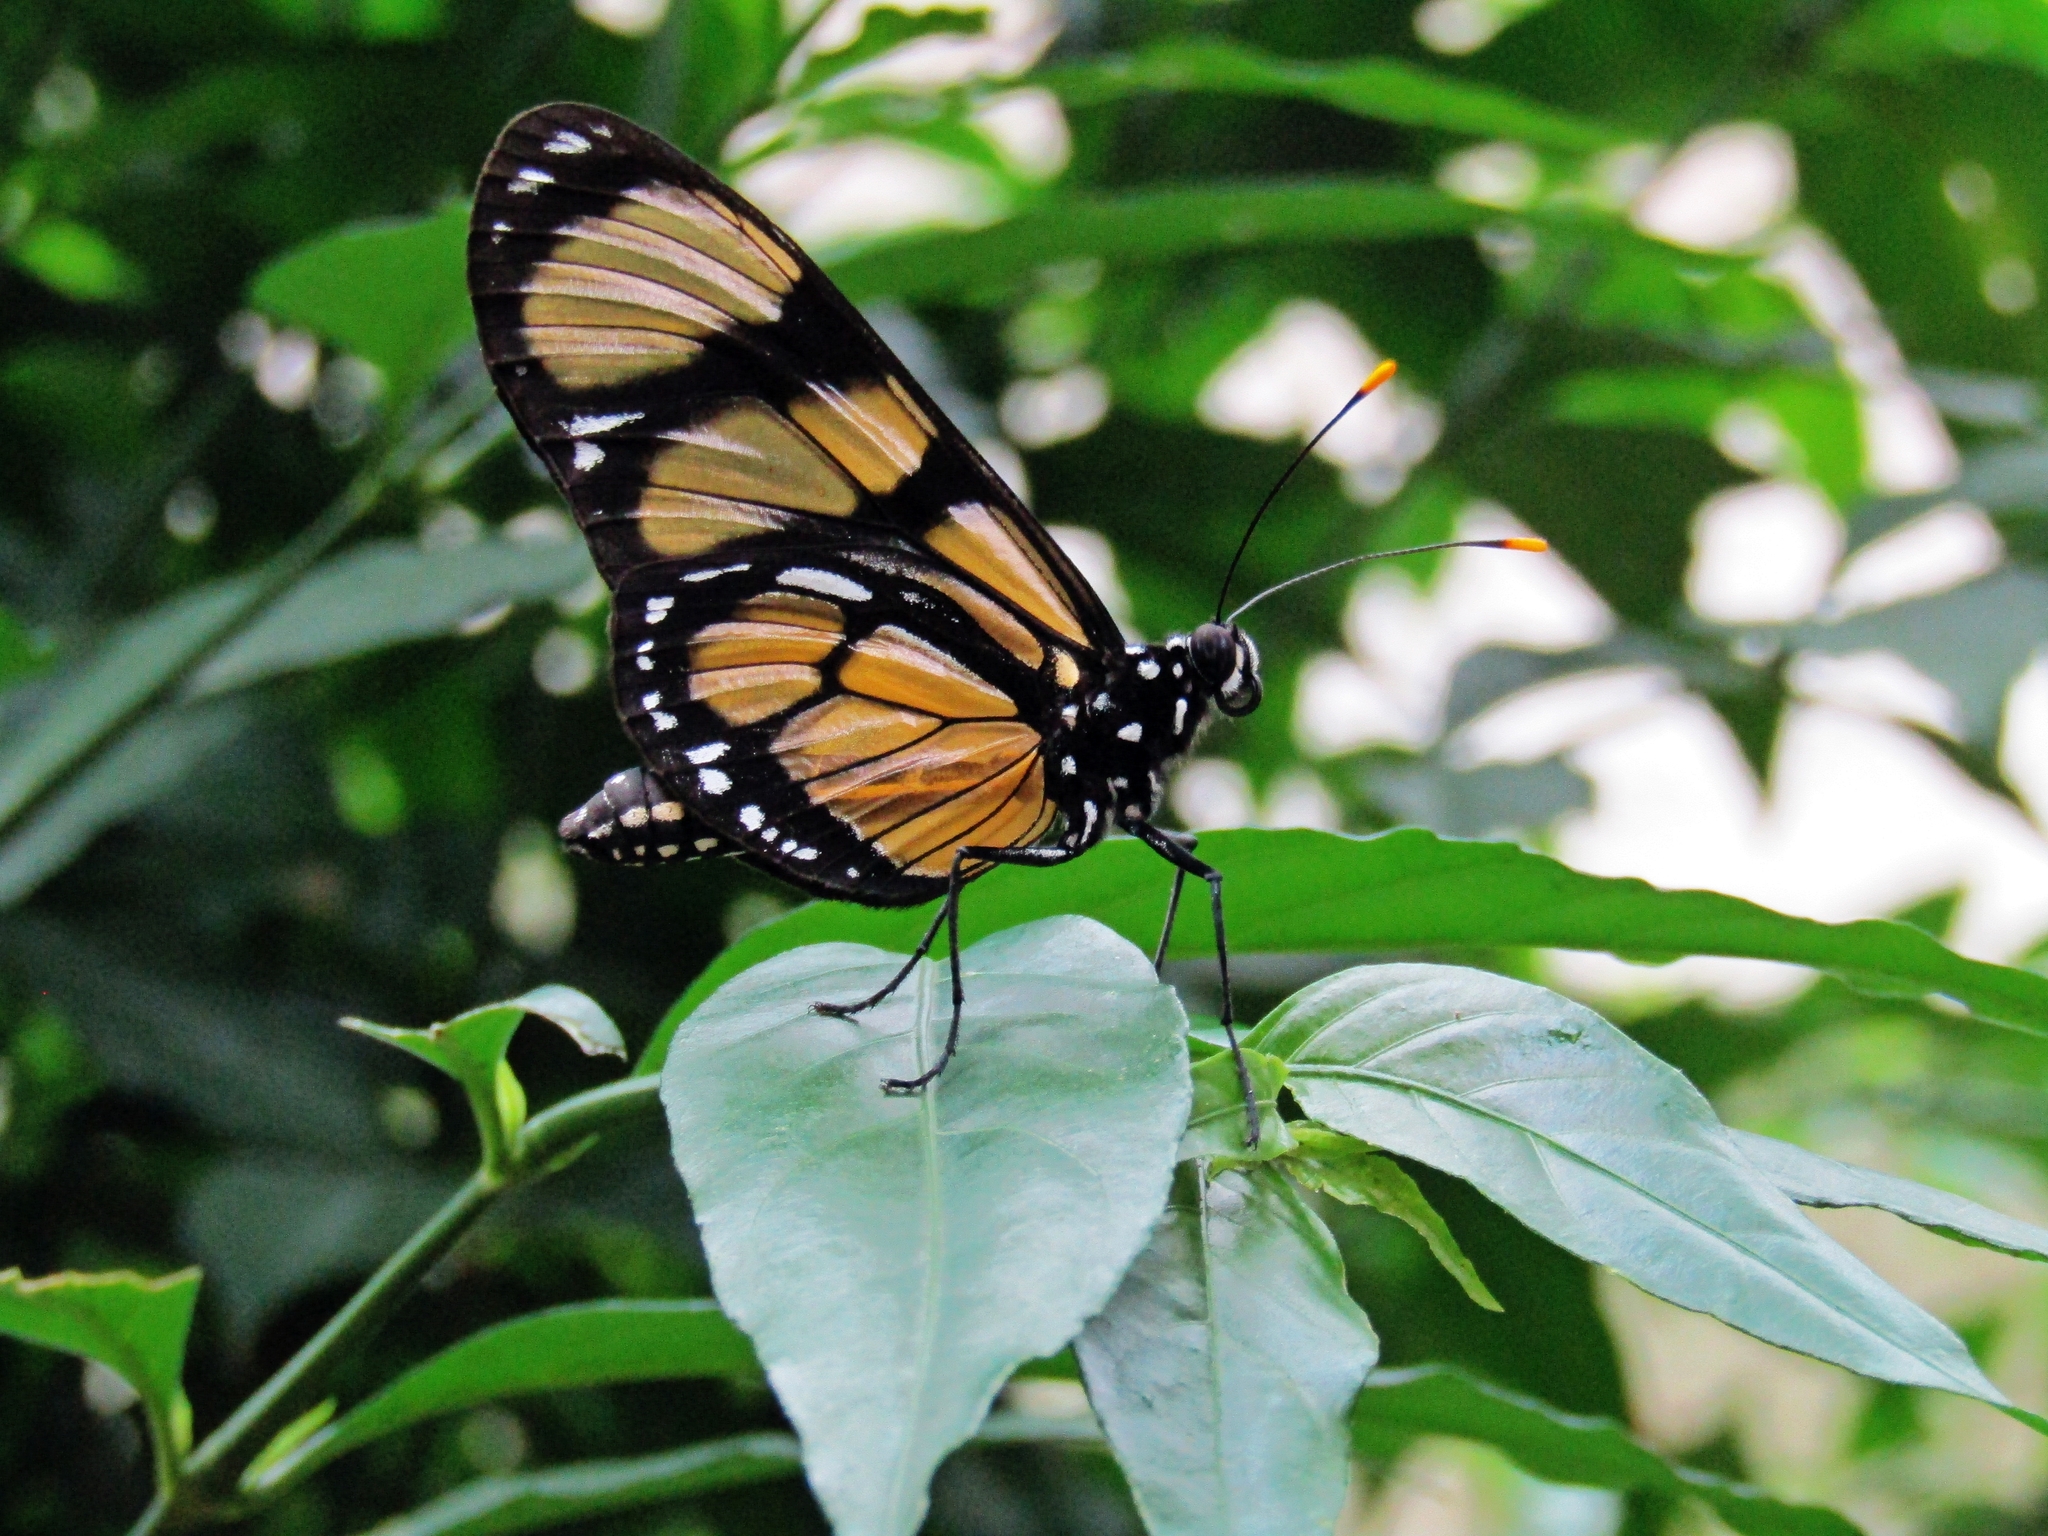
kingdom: Animalia
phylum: Arthropoda
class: Insecta
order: Lepidoptera
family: Nymphalidae
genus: Methona
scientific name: Methona themisto
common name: Themisto amberwing
